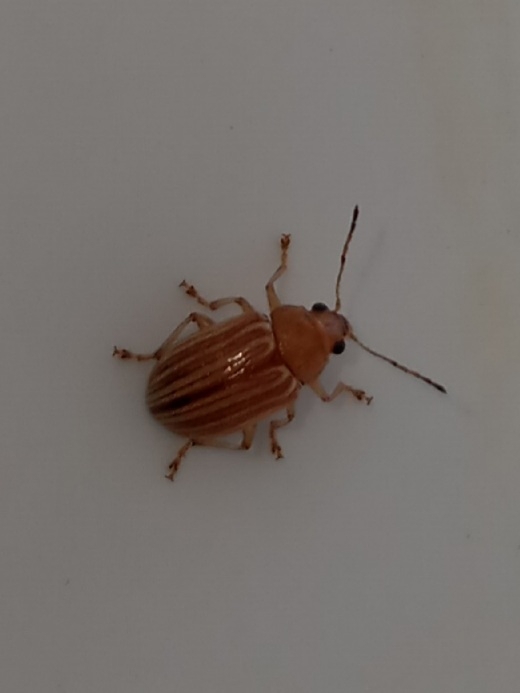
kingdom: Animalia
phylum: Arthropoda
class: Insecta
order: Coleoptera
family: Chrysomelidae
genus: Colaspis
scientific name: Colaspis brunnea
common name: Grape colaspis
